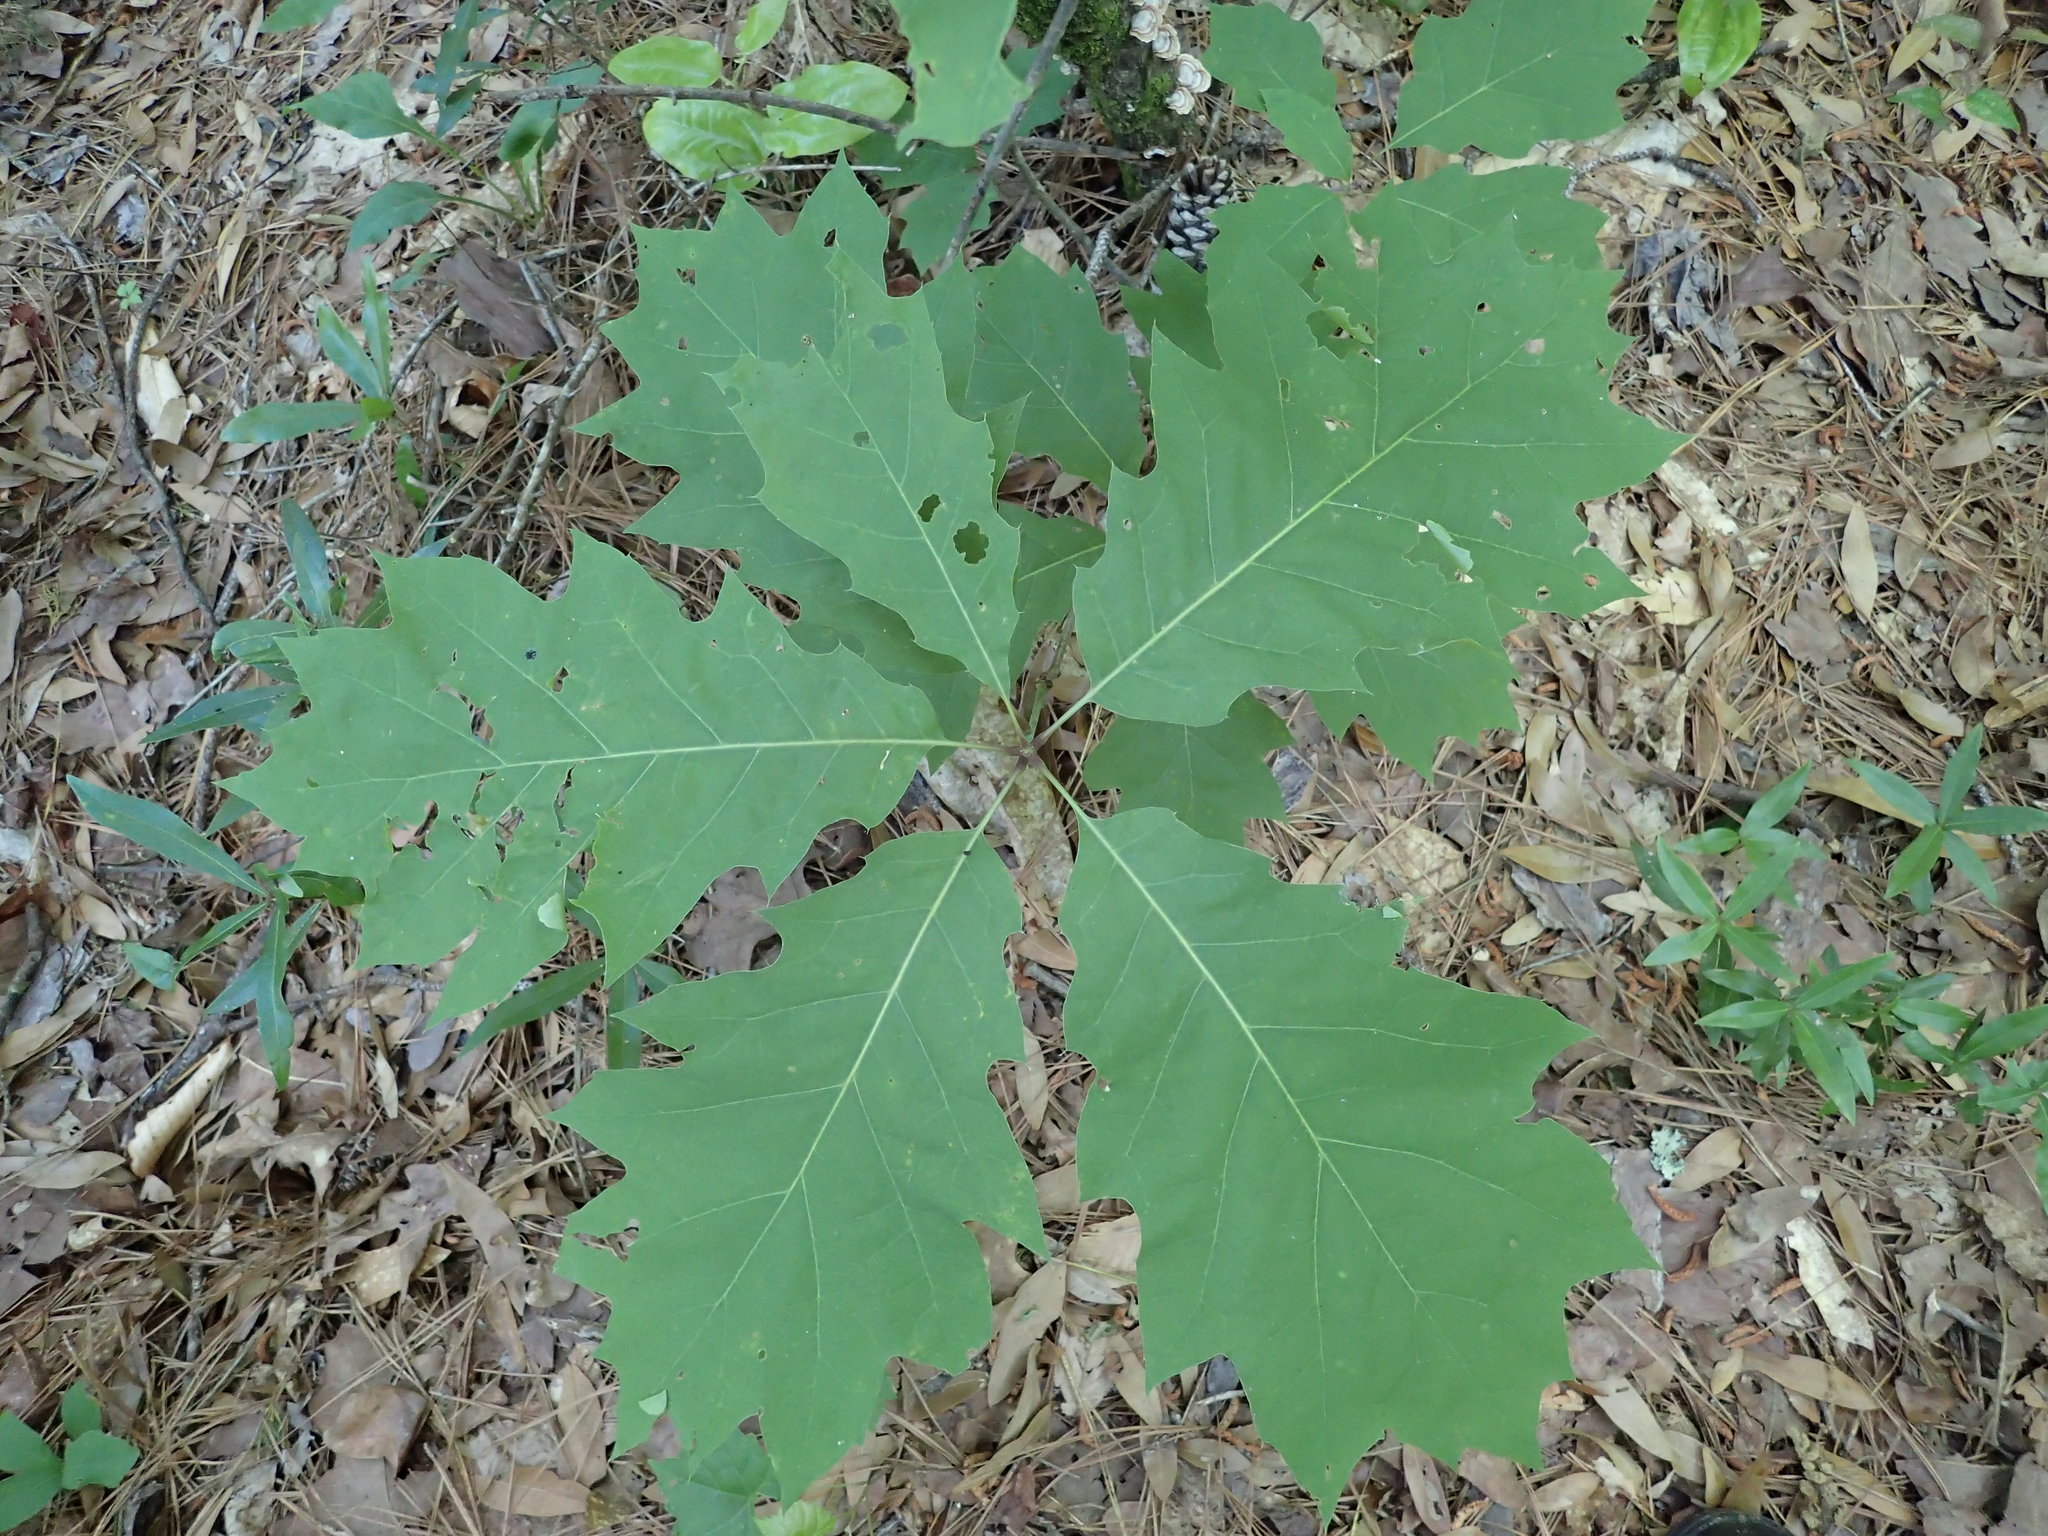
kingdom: Plantae
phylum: Tracheophyta
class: Magnoliopsida
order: Fagales
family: Fagaceae
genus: Quercus
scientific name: Quercus rubra
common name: Red oak
